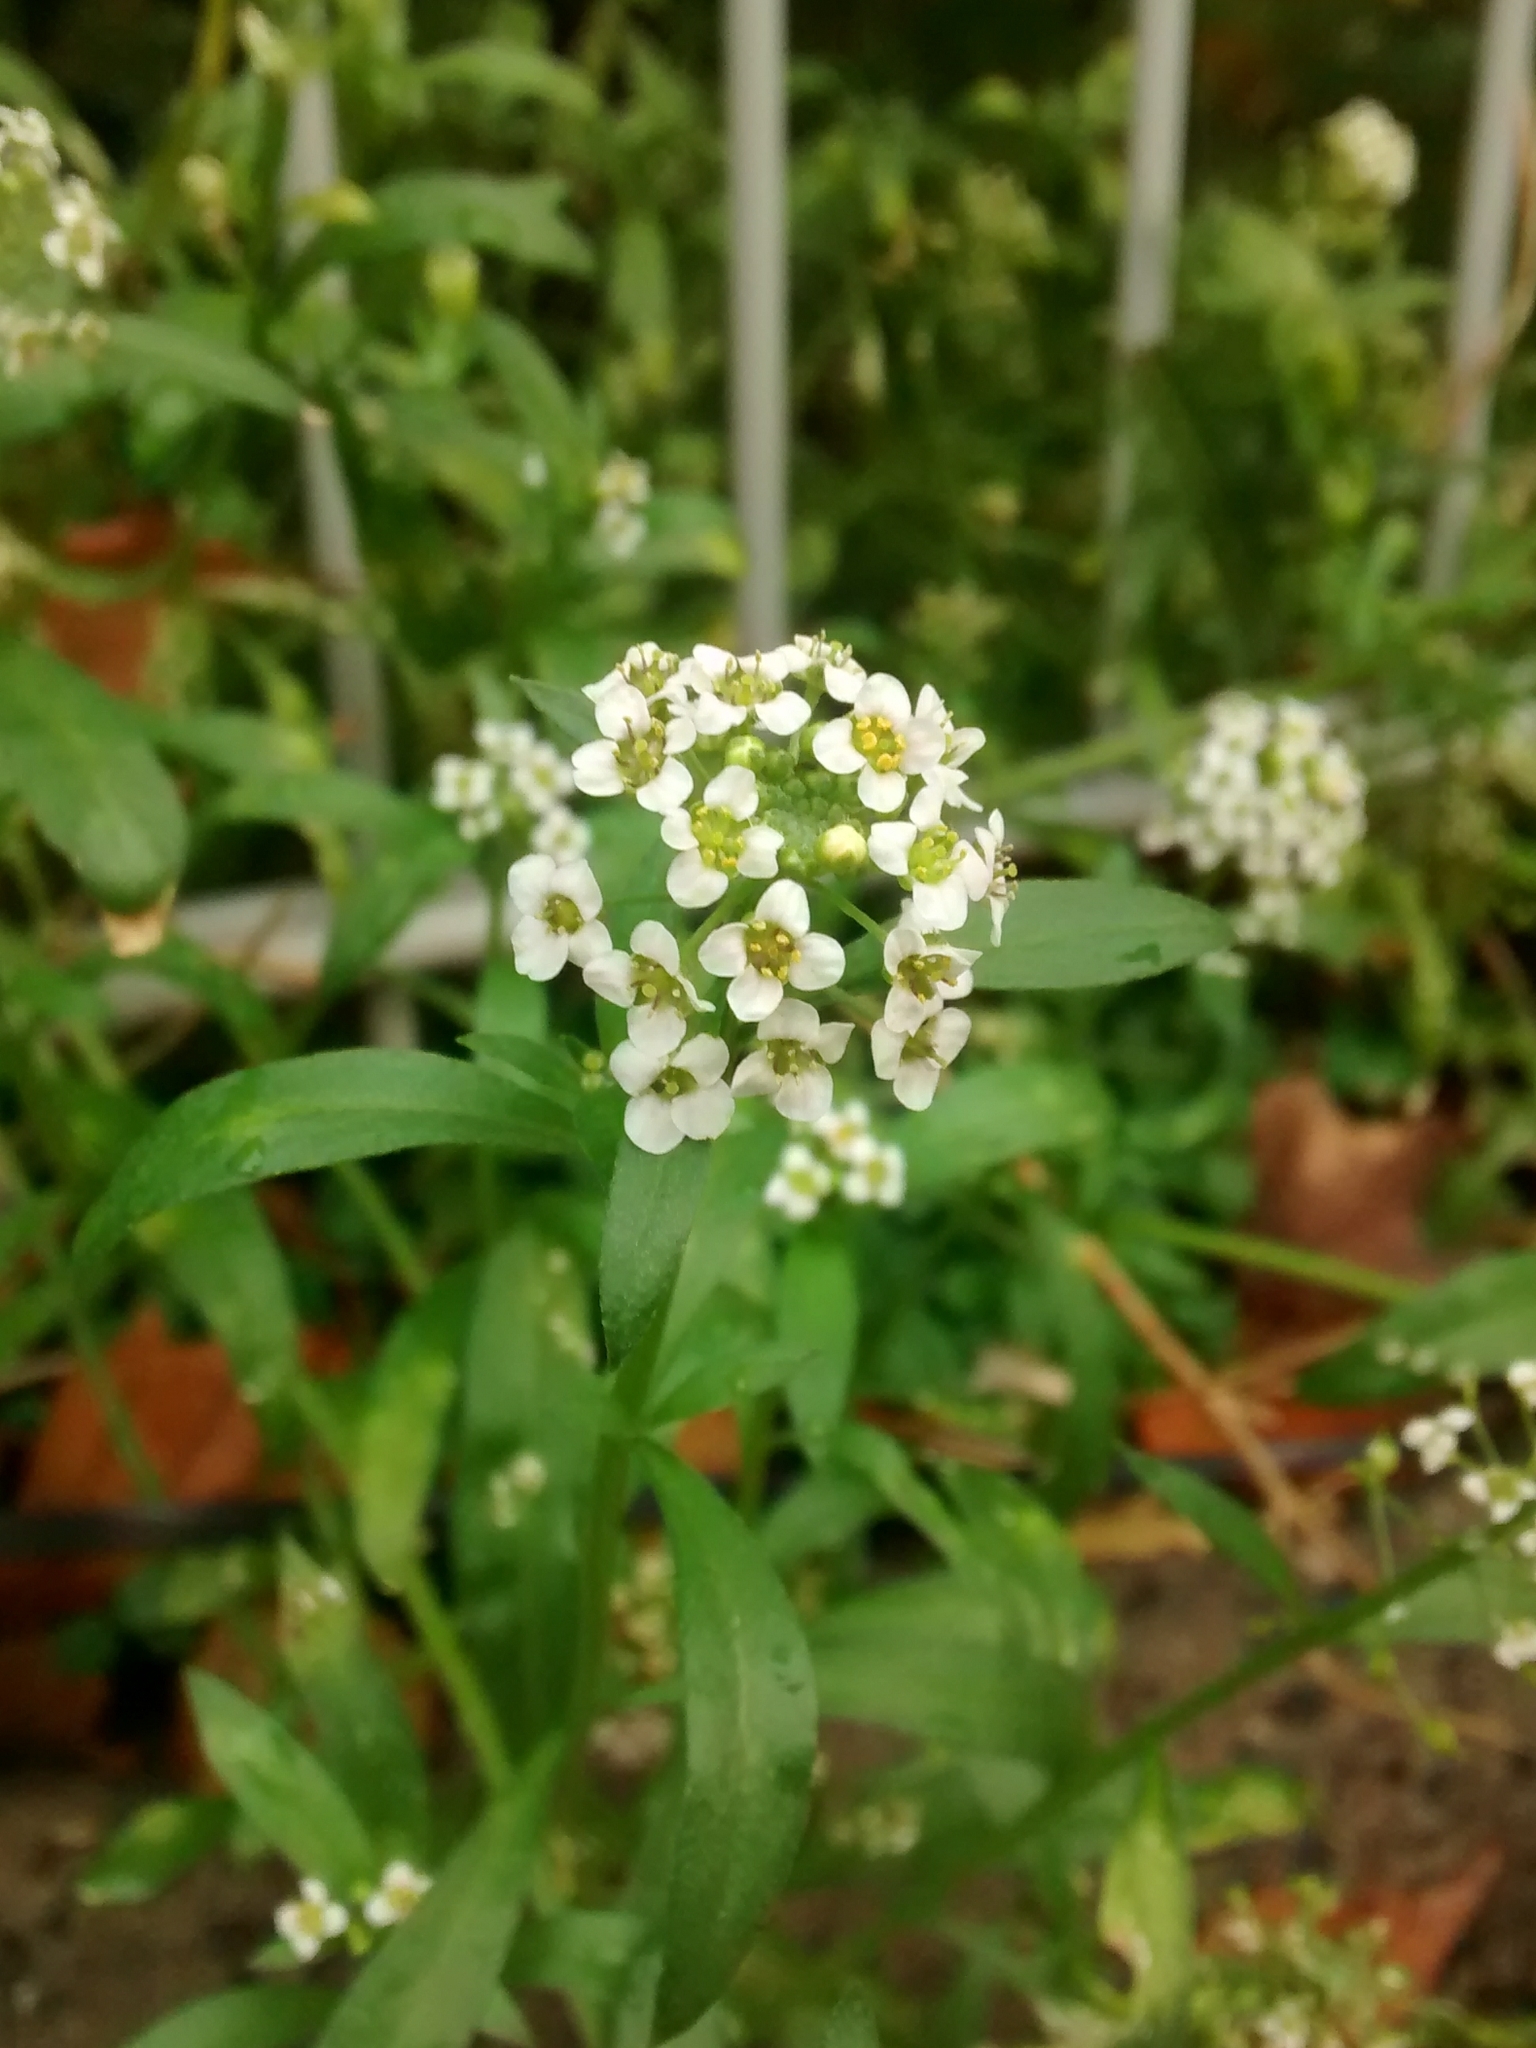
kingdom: Plantae
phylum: Tracheophyta
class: Magnoliopsida
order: Brassicales
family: Brassicaceae
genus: Lobularia
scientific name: Lobularia maritima
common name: Sweet alison
